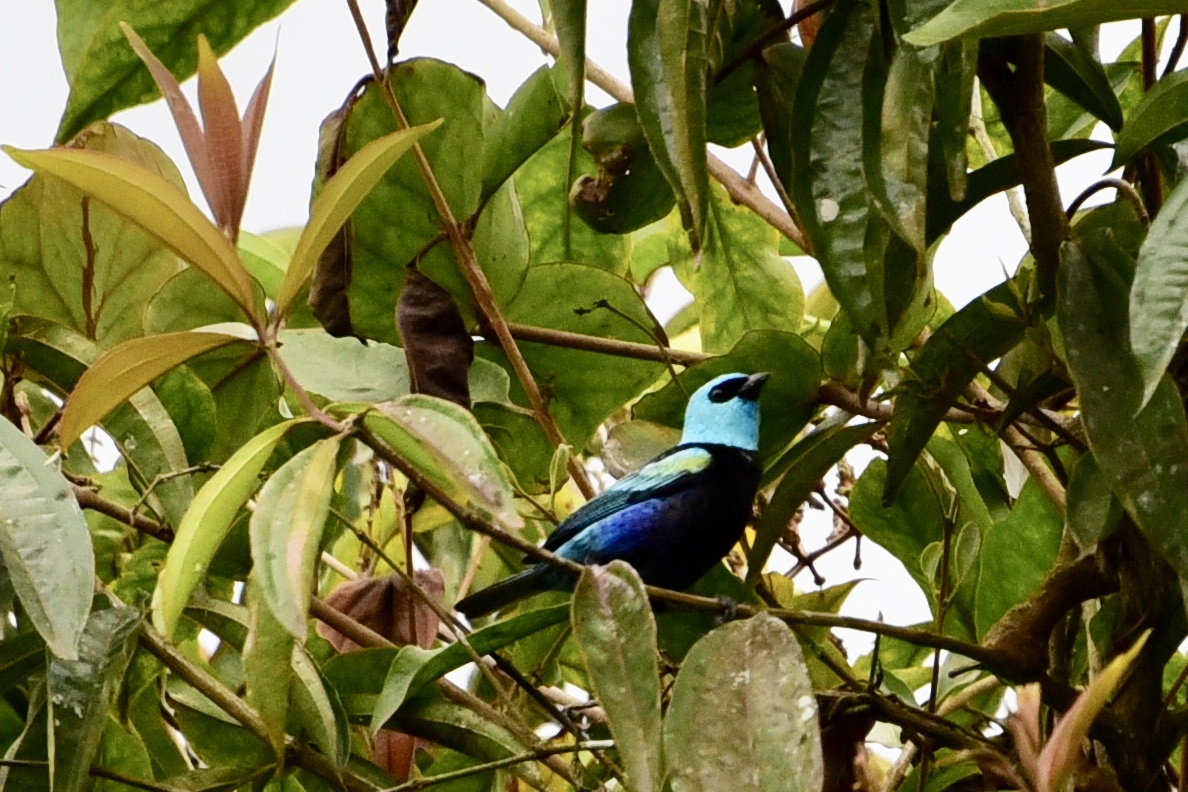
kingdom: Animalia
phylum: Chordata
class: Aves
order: Passeriformes
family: Thraupidae
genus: Stilpnia
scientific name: Stilpnia cyanicollis
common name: Blue-necked tanager
